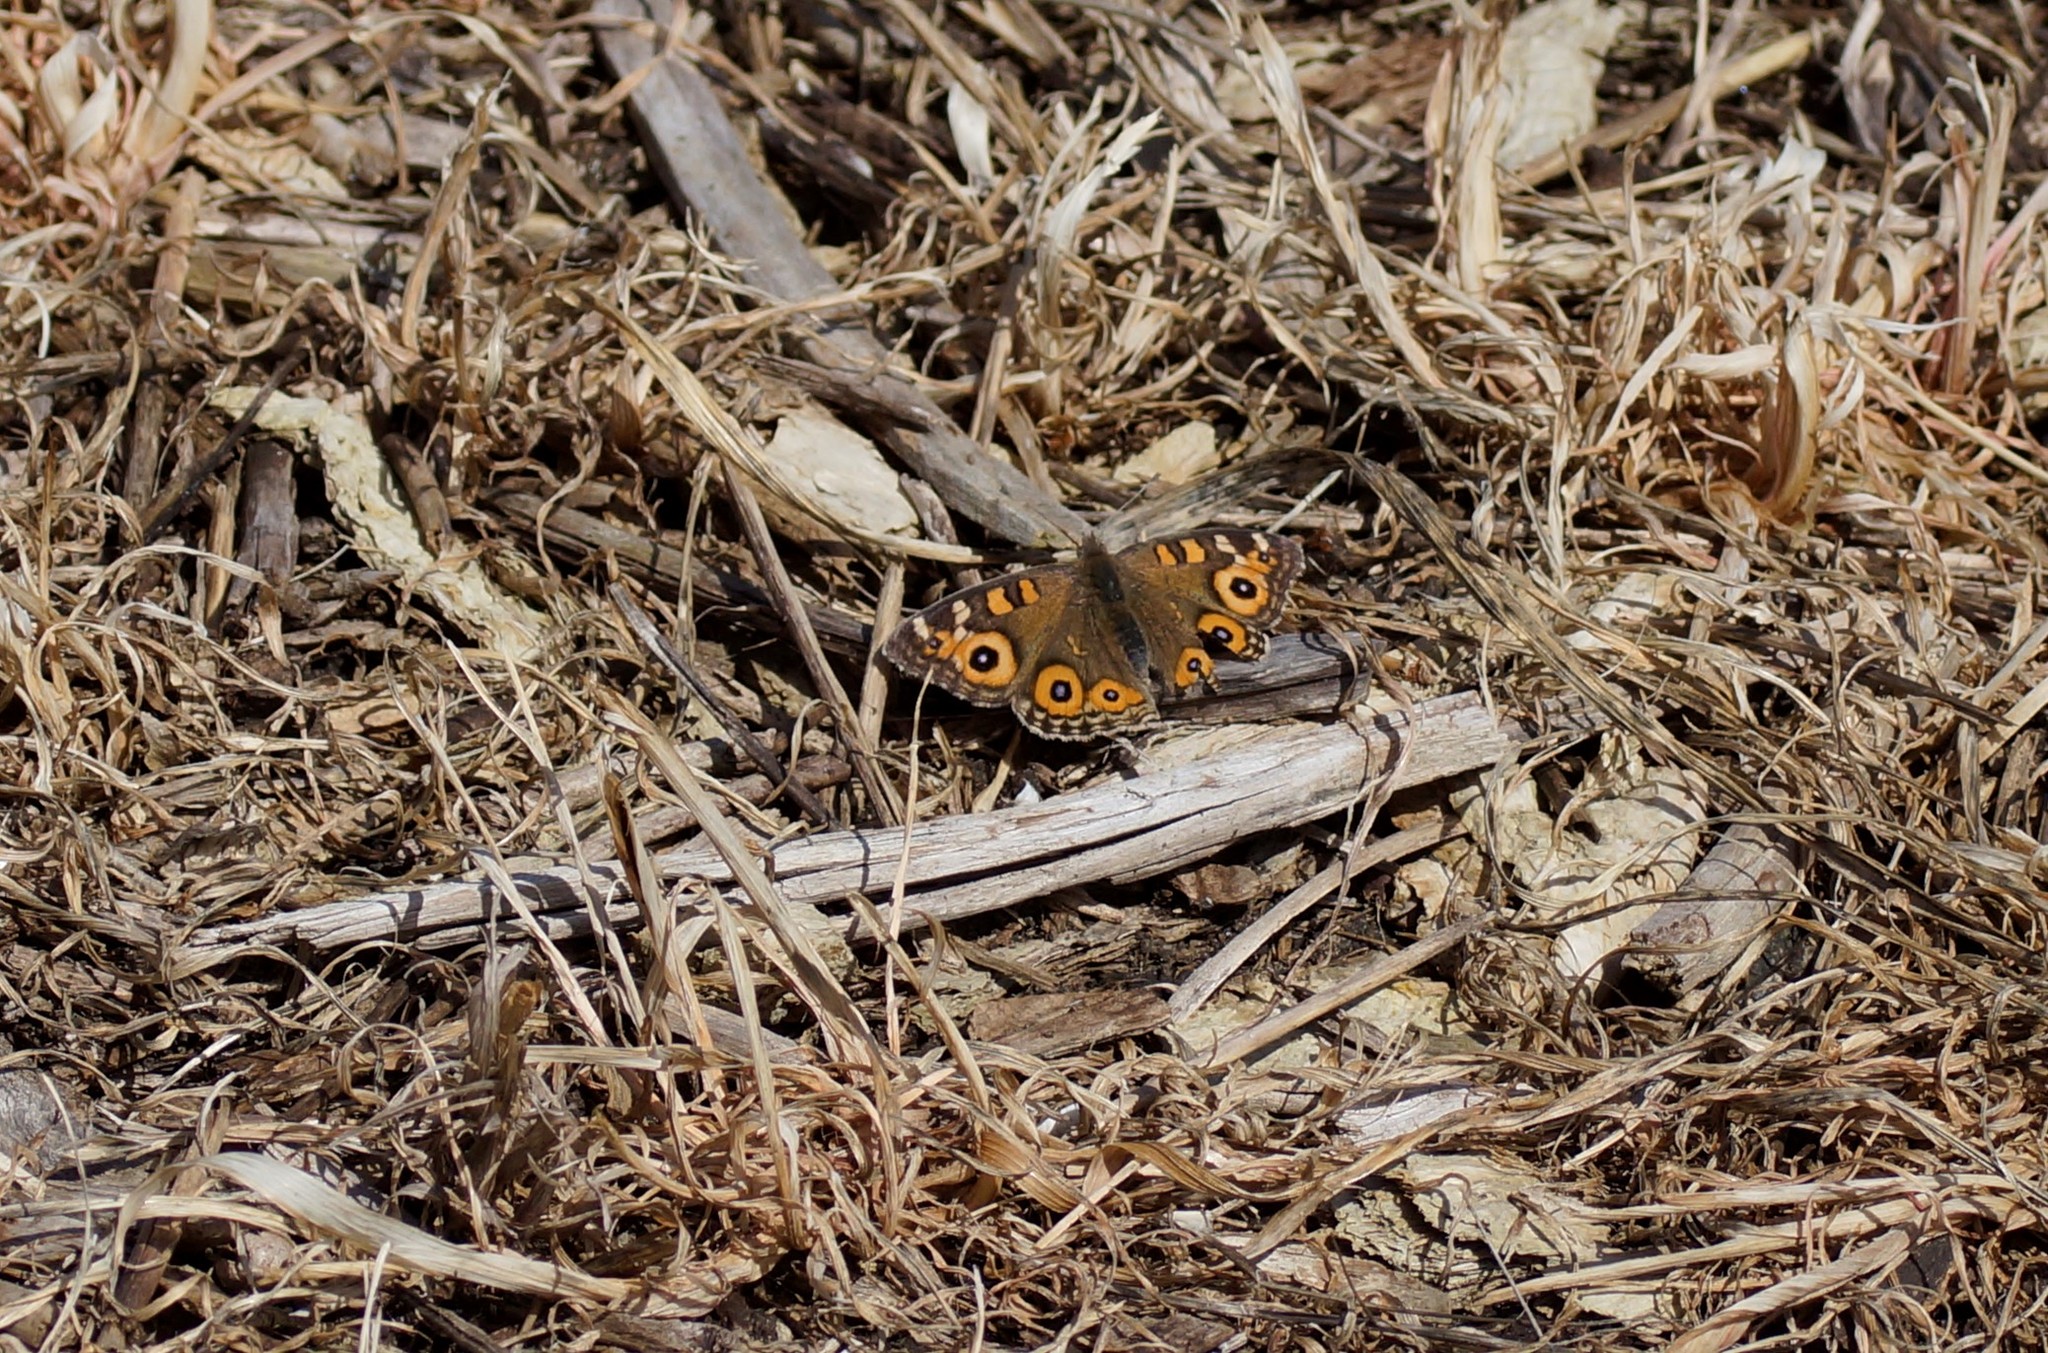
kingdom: Animalia
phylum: Arthropoda
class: Insecta
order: Lepidoptera
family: Nymphalidae
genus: Junonia
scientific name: Junonia villida
